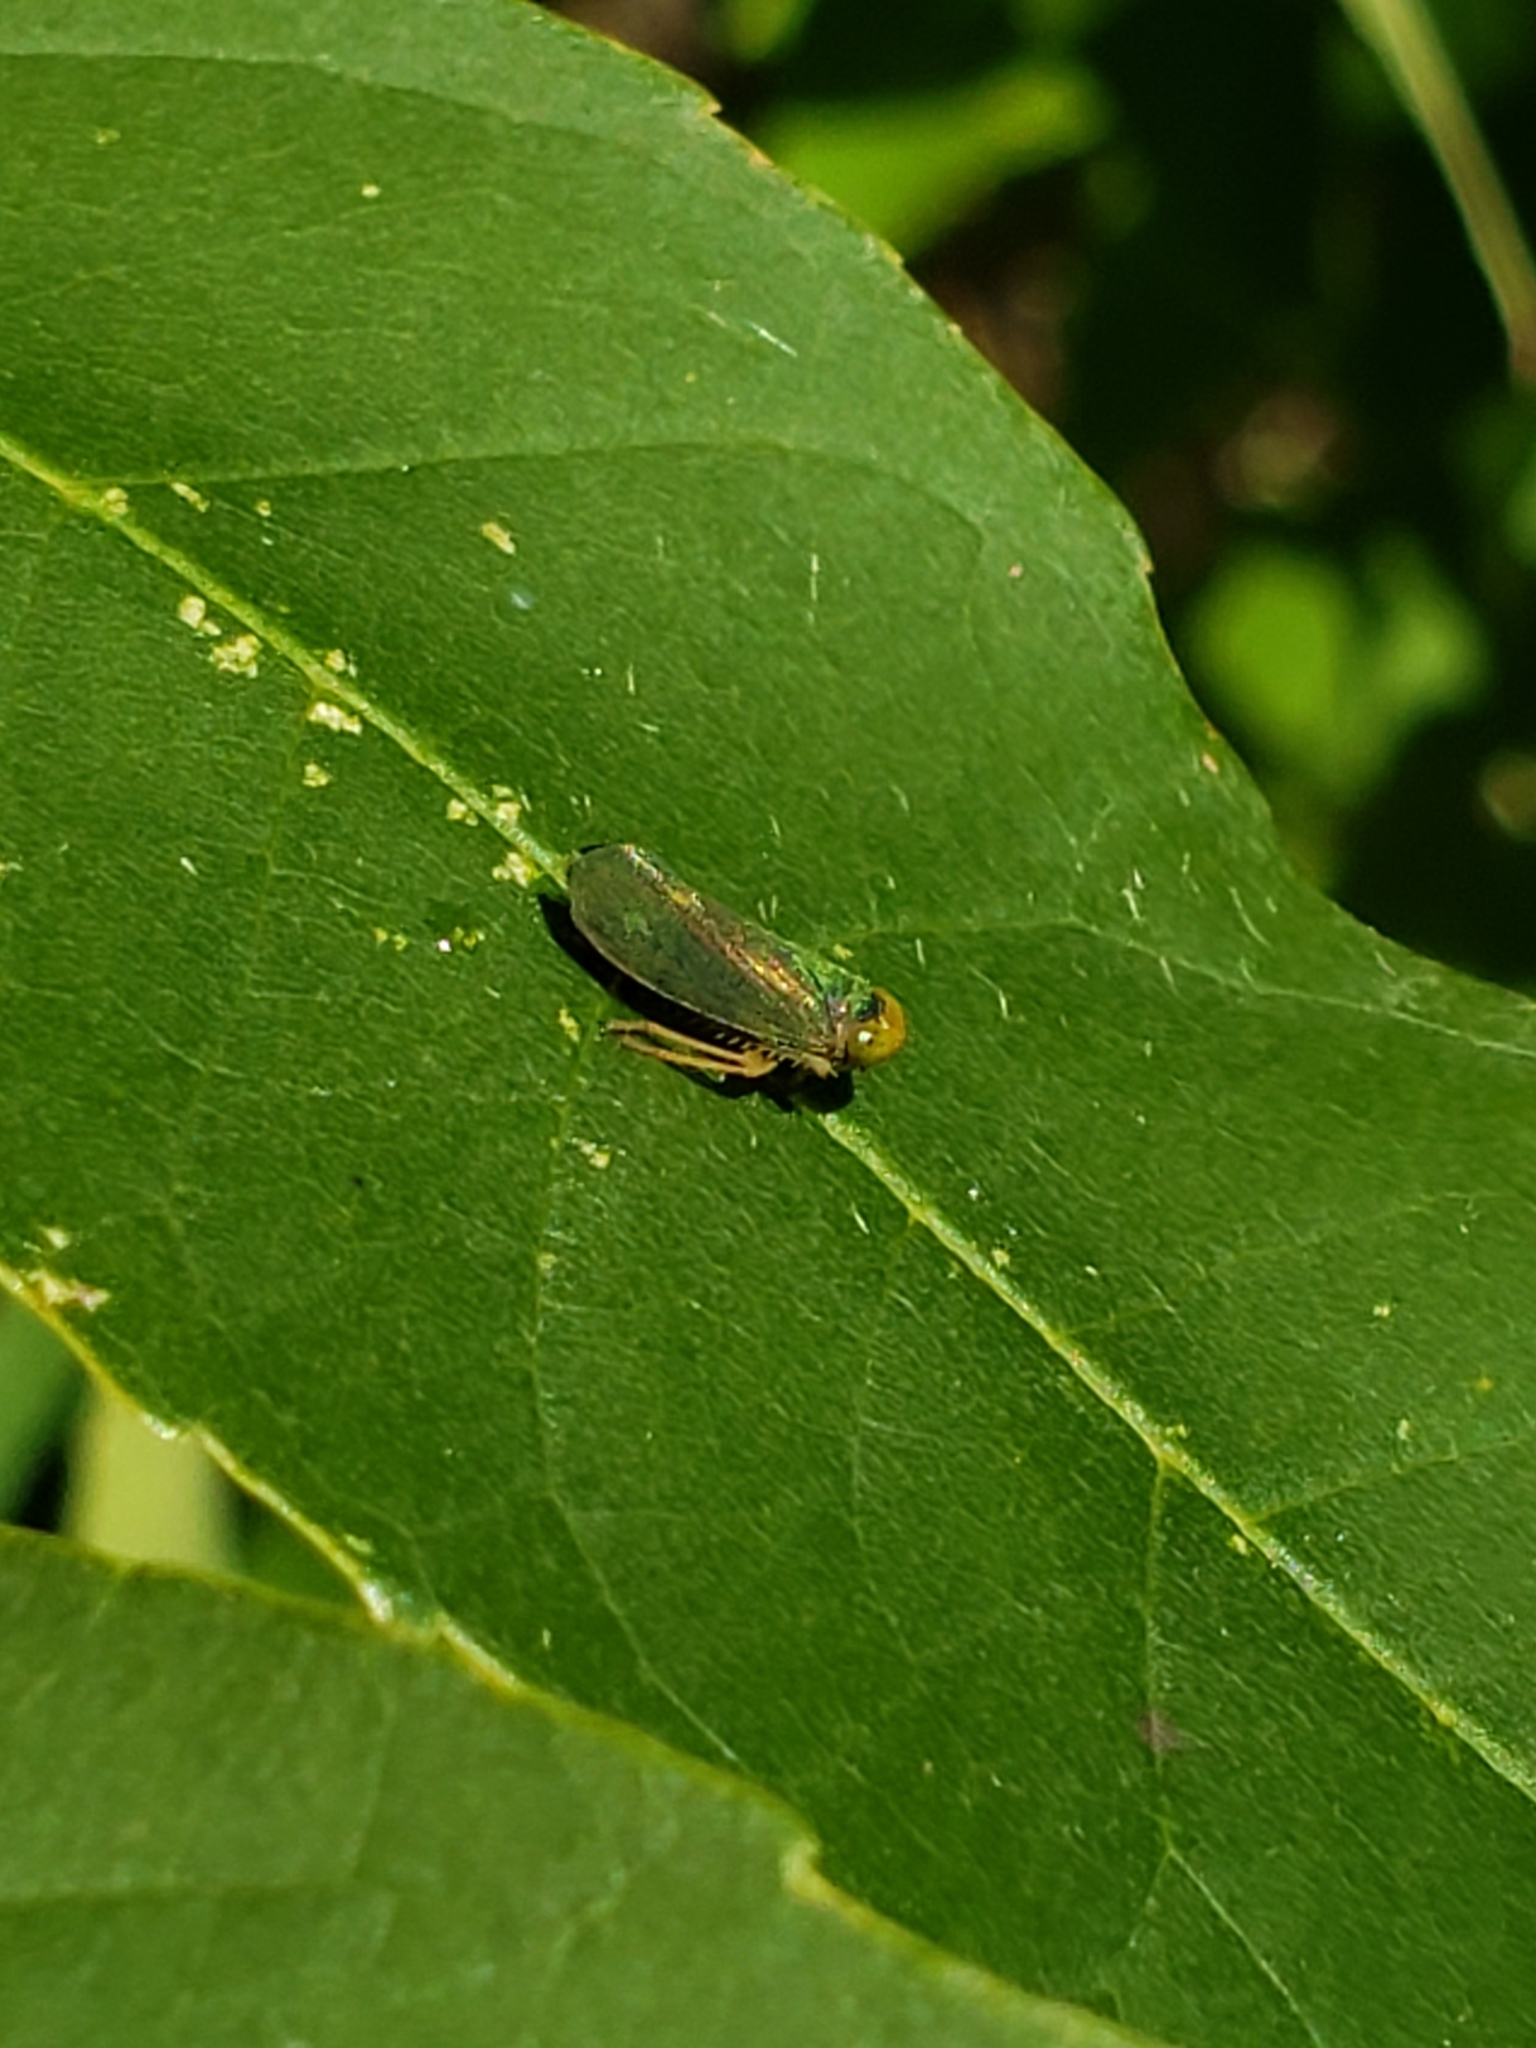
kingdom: Animalia
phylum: Arthropoda
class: Insecta
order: Hemiptera
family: Cicadellidae
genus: Jikradia
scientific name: Jikradia olitoria
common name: Coppery leafhopper
